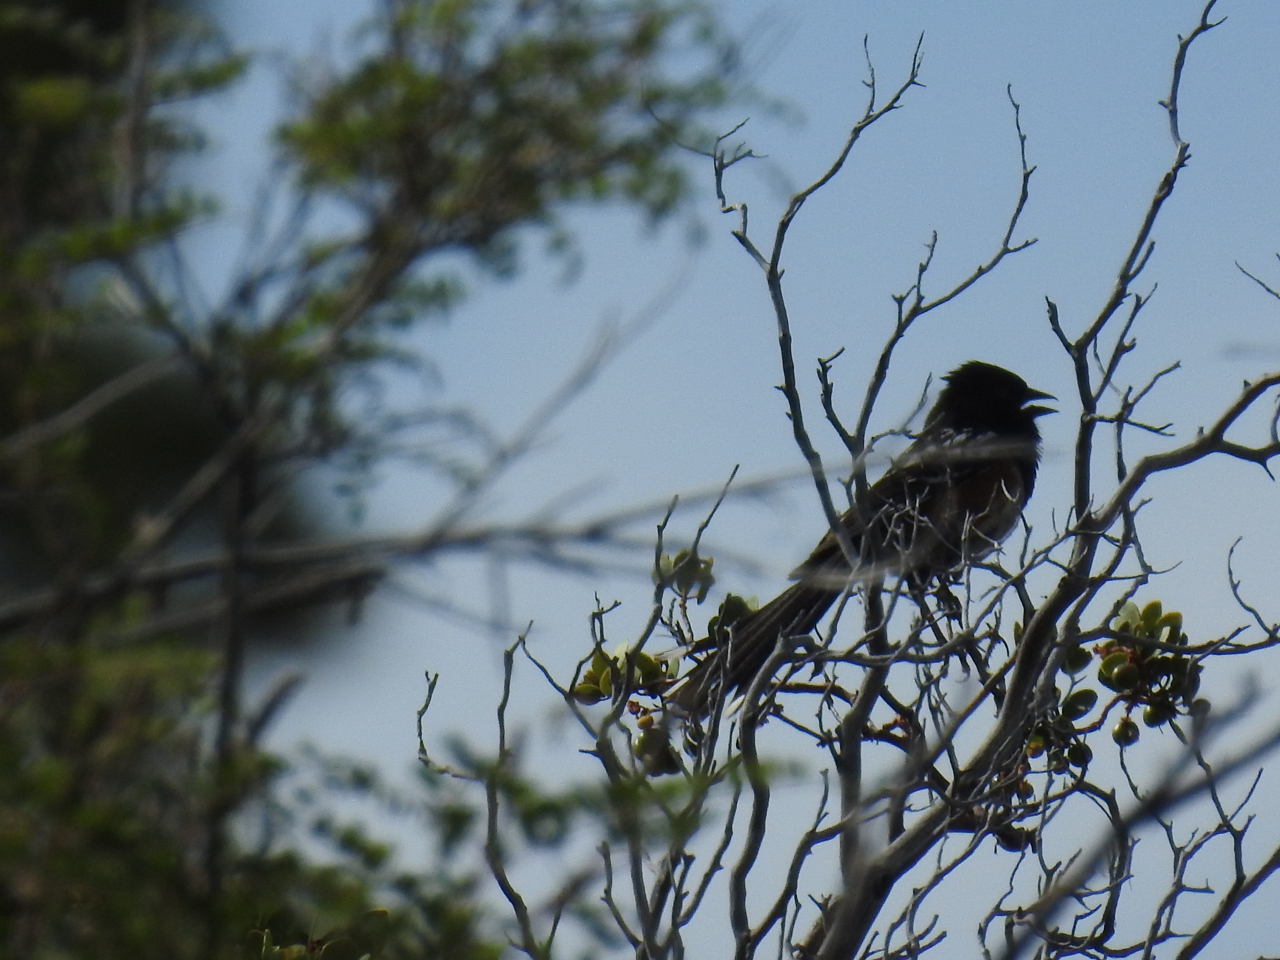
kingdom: Animalia
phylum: Chordata
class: Aves
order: Passeriformes
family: Passerellidae
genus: Pipilo
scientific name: Pipilo maculatus
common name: Spotted towhee
